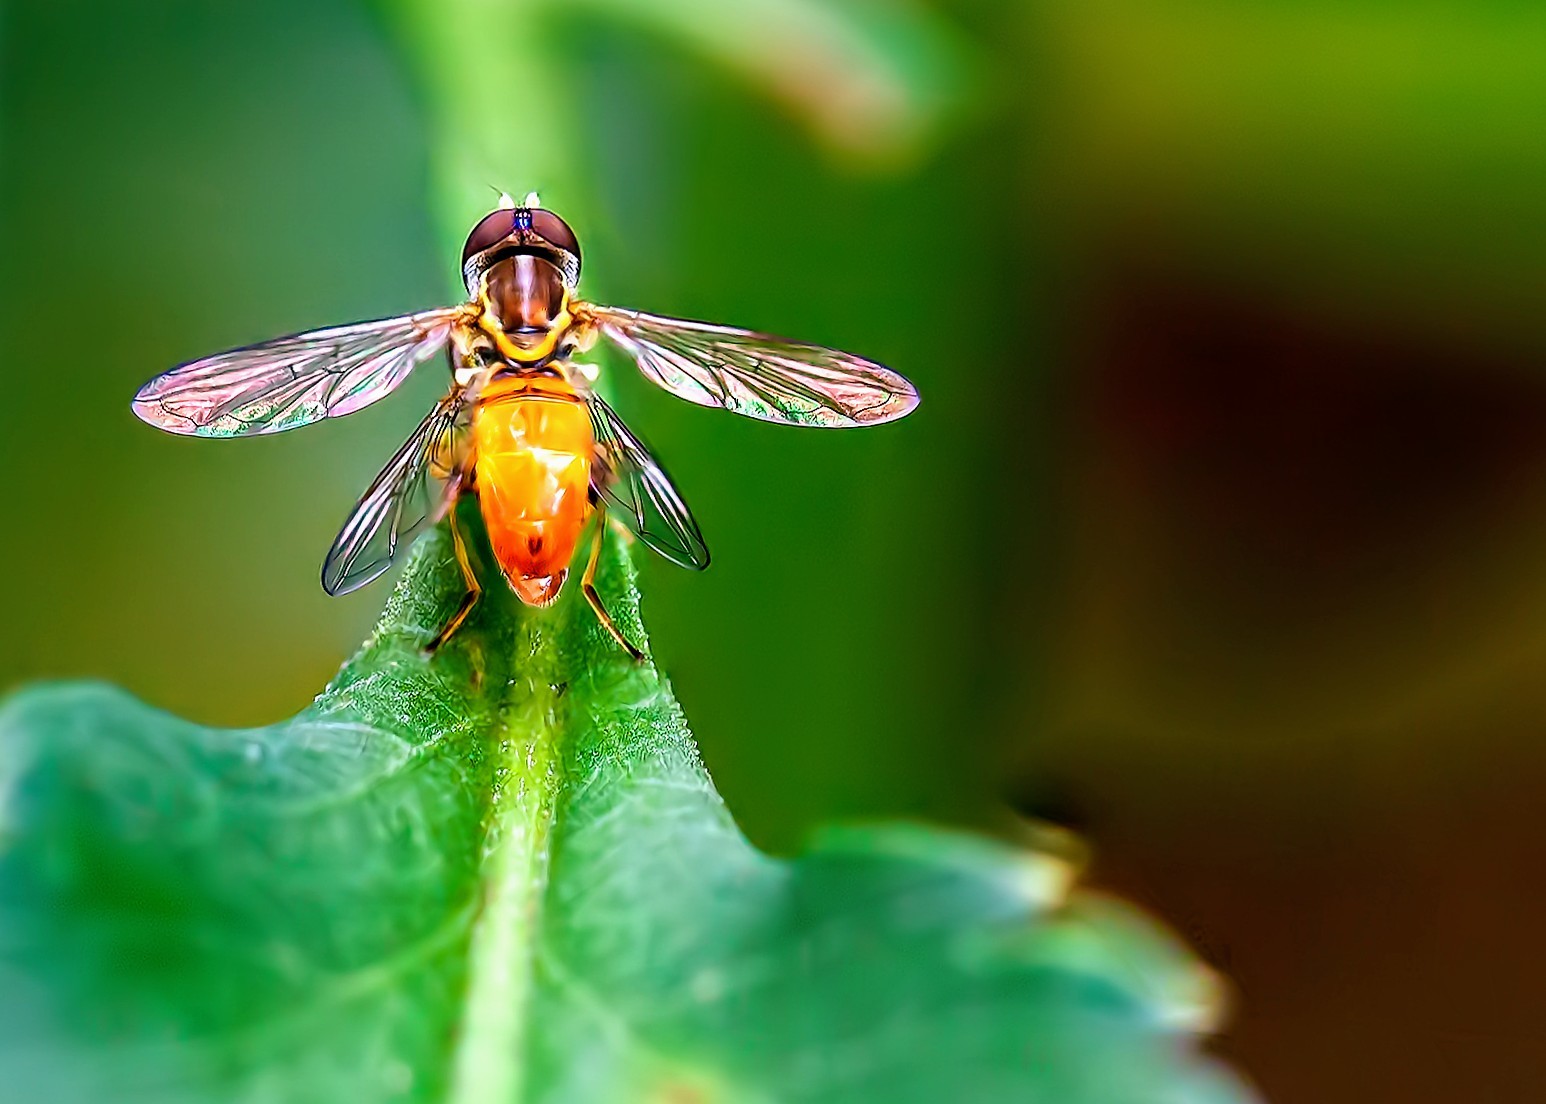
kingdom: Animalia
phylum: Arthropoda
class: Insecta
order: Diptera
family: Syrphidae
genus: Toxomerus
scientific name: Toxomerus floralis
